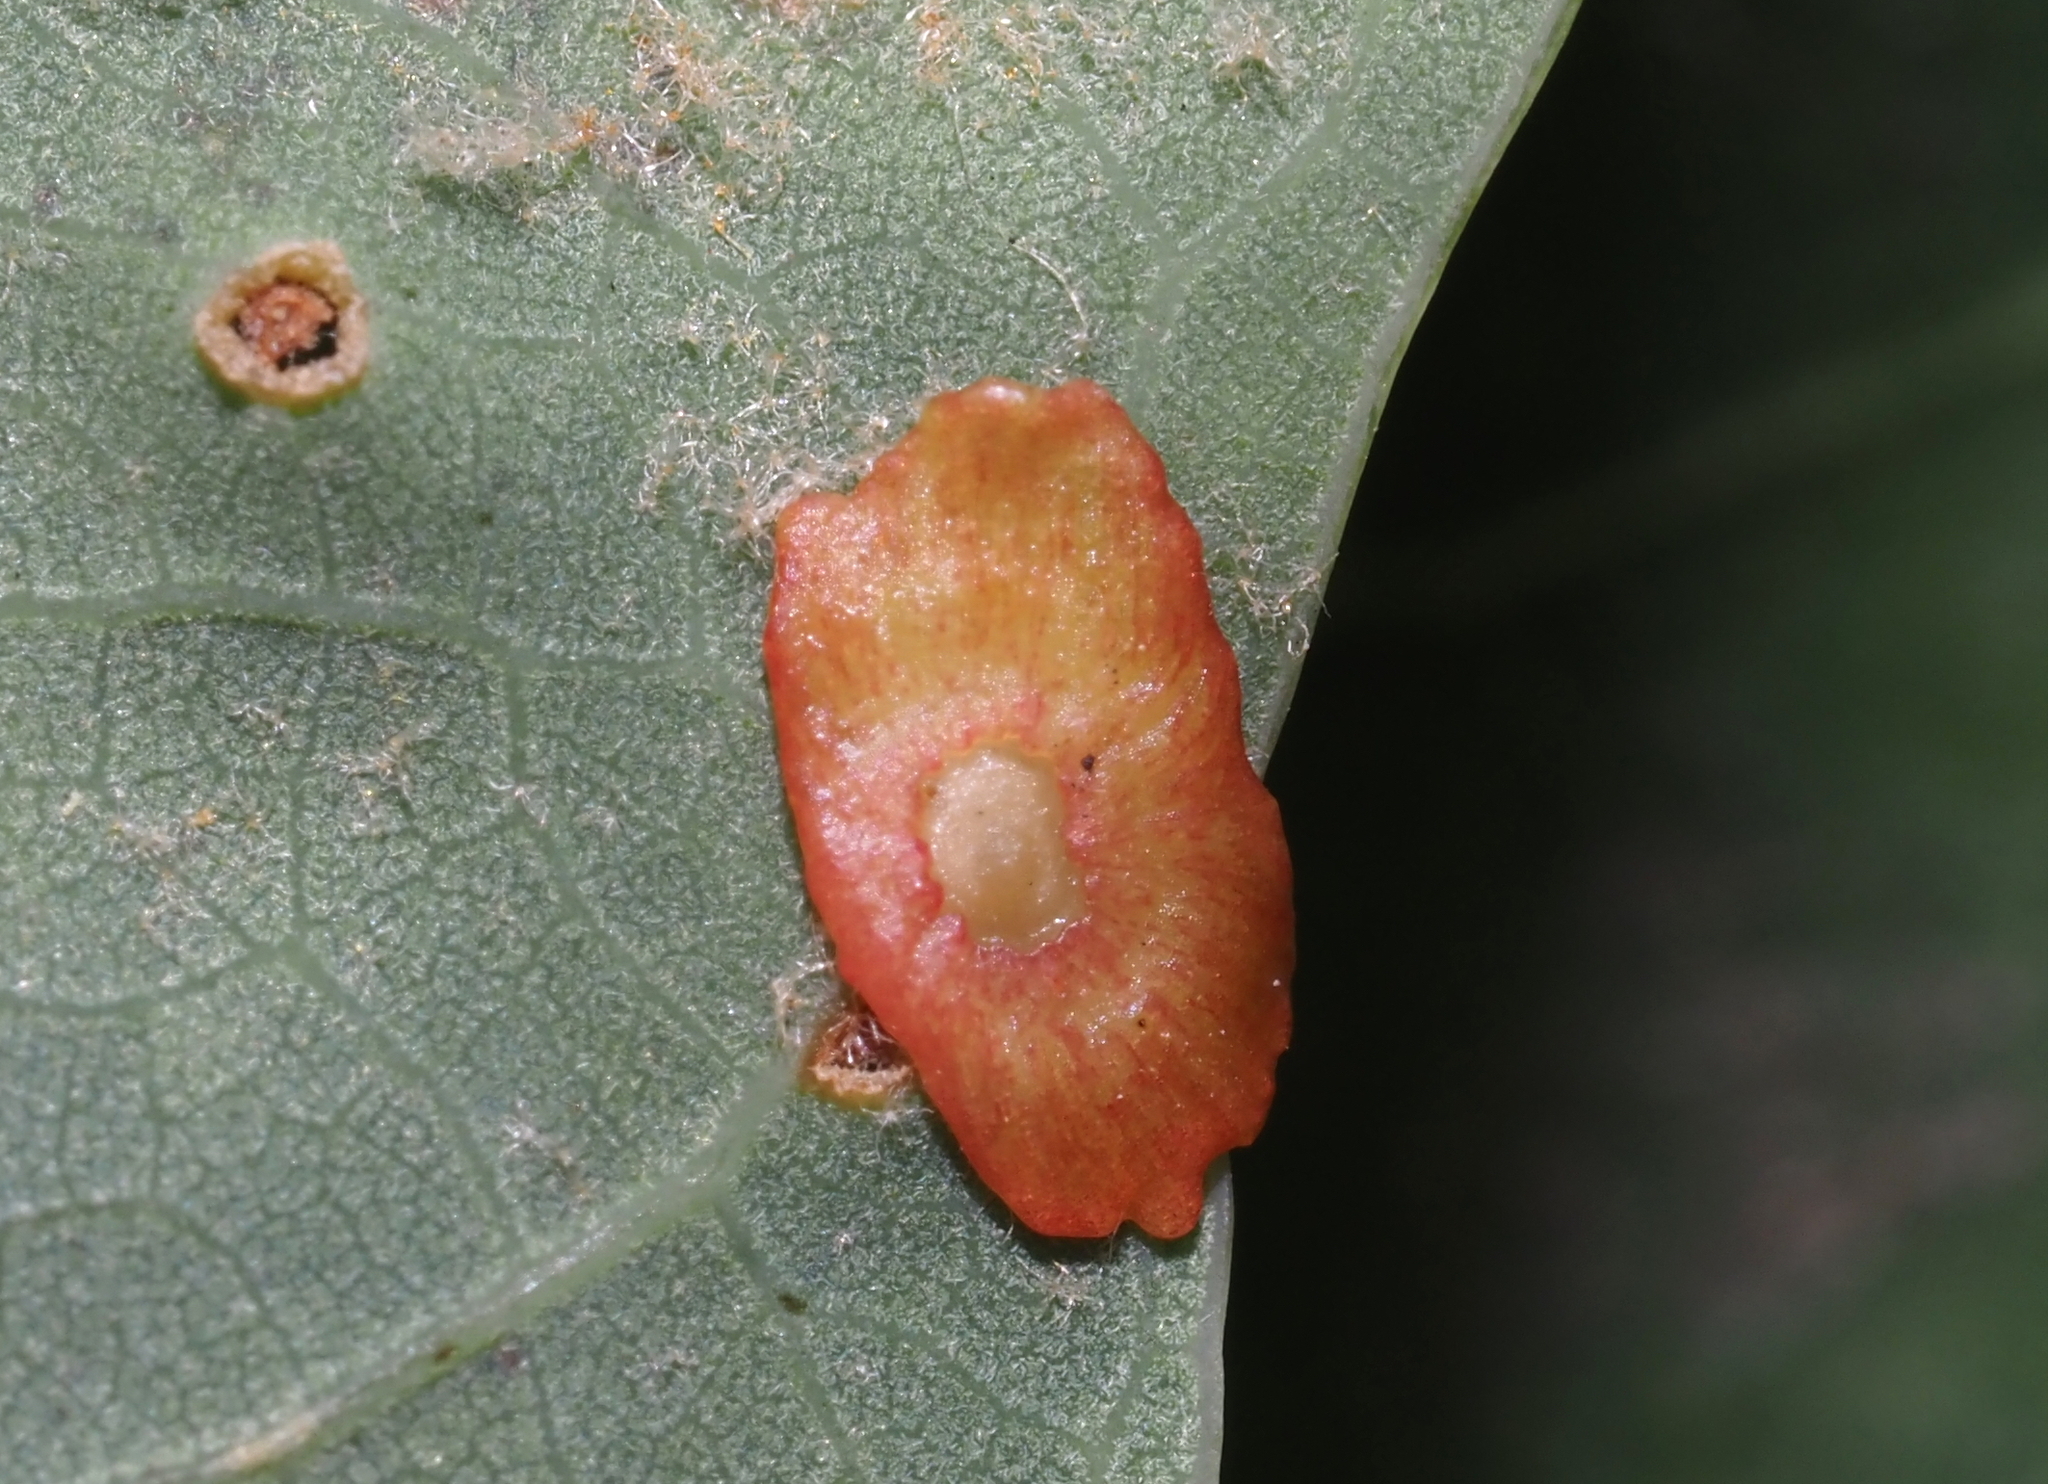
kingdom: Animalia
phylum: Arthropoda
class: Insecta
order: Hymenoptera
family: Cynipidae
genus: Phylloteras
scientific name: Phylloteras
